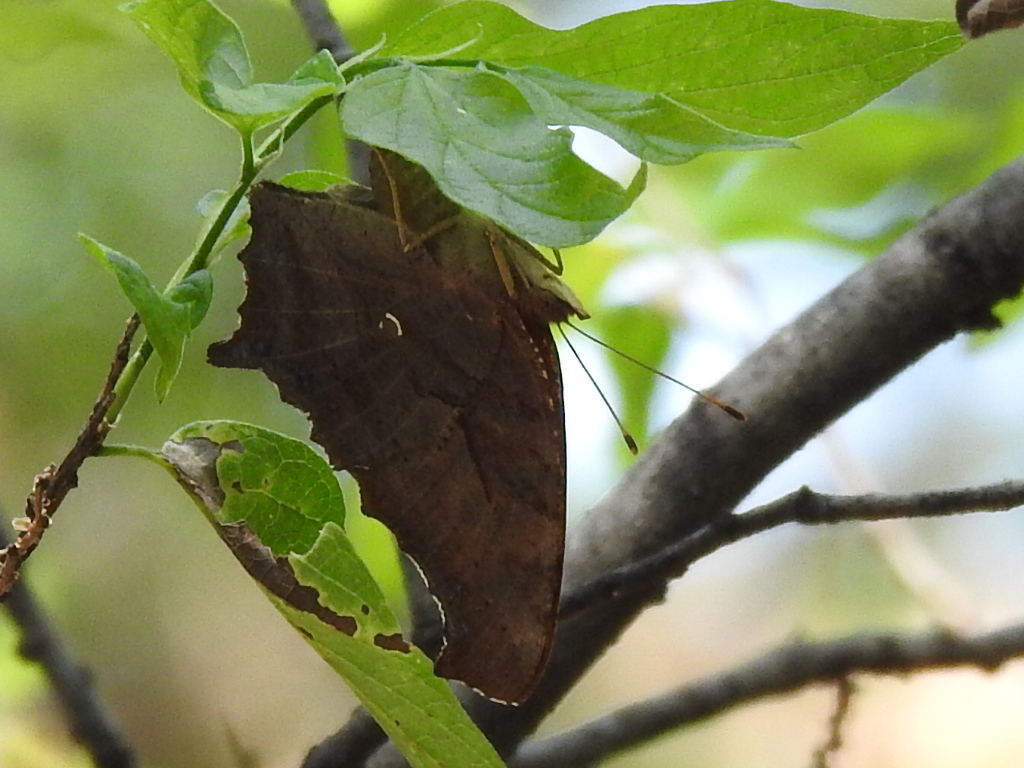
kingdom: Animalia
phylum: Arthropoda
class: Insecta
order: Lepidoptera
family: Nymphalidae
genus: Polygonia
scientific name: Polygonia interrogationis
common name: Question mark
